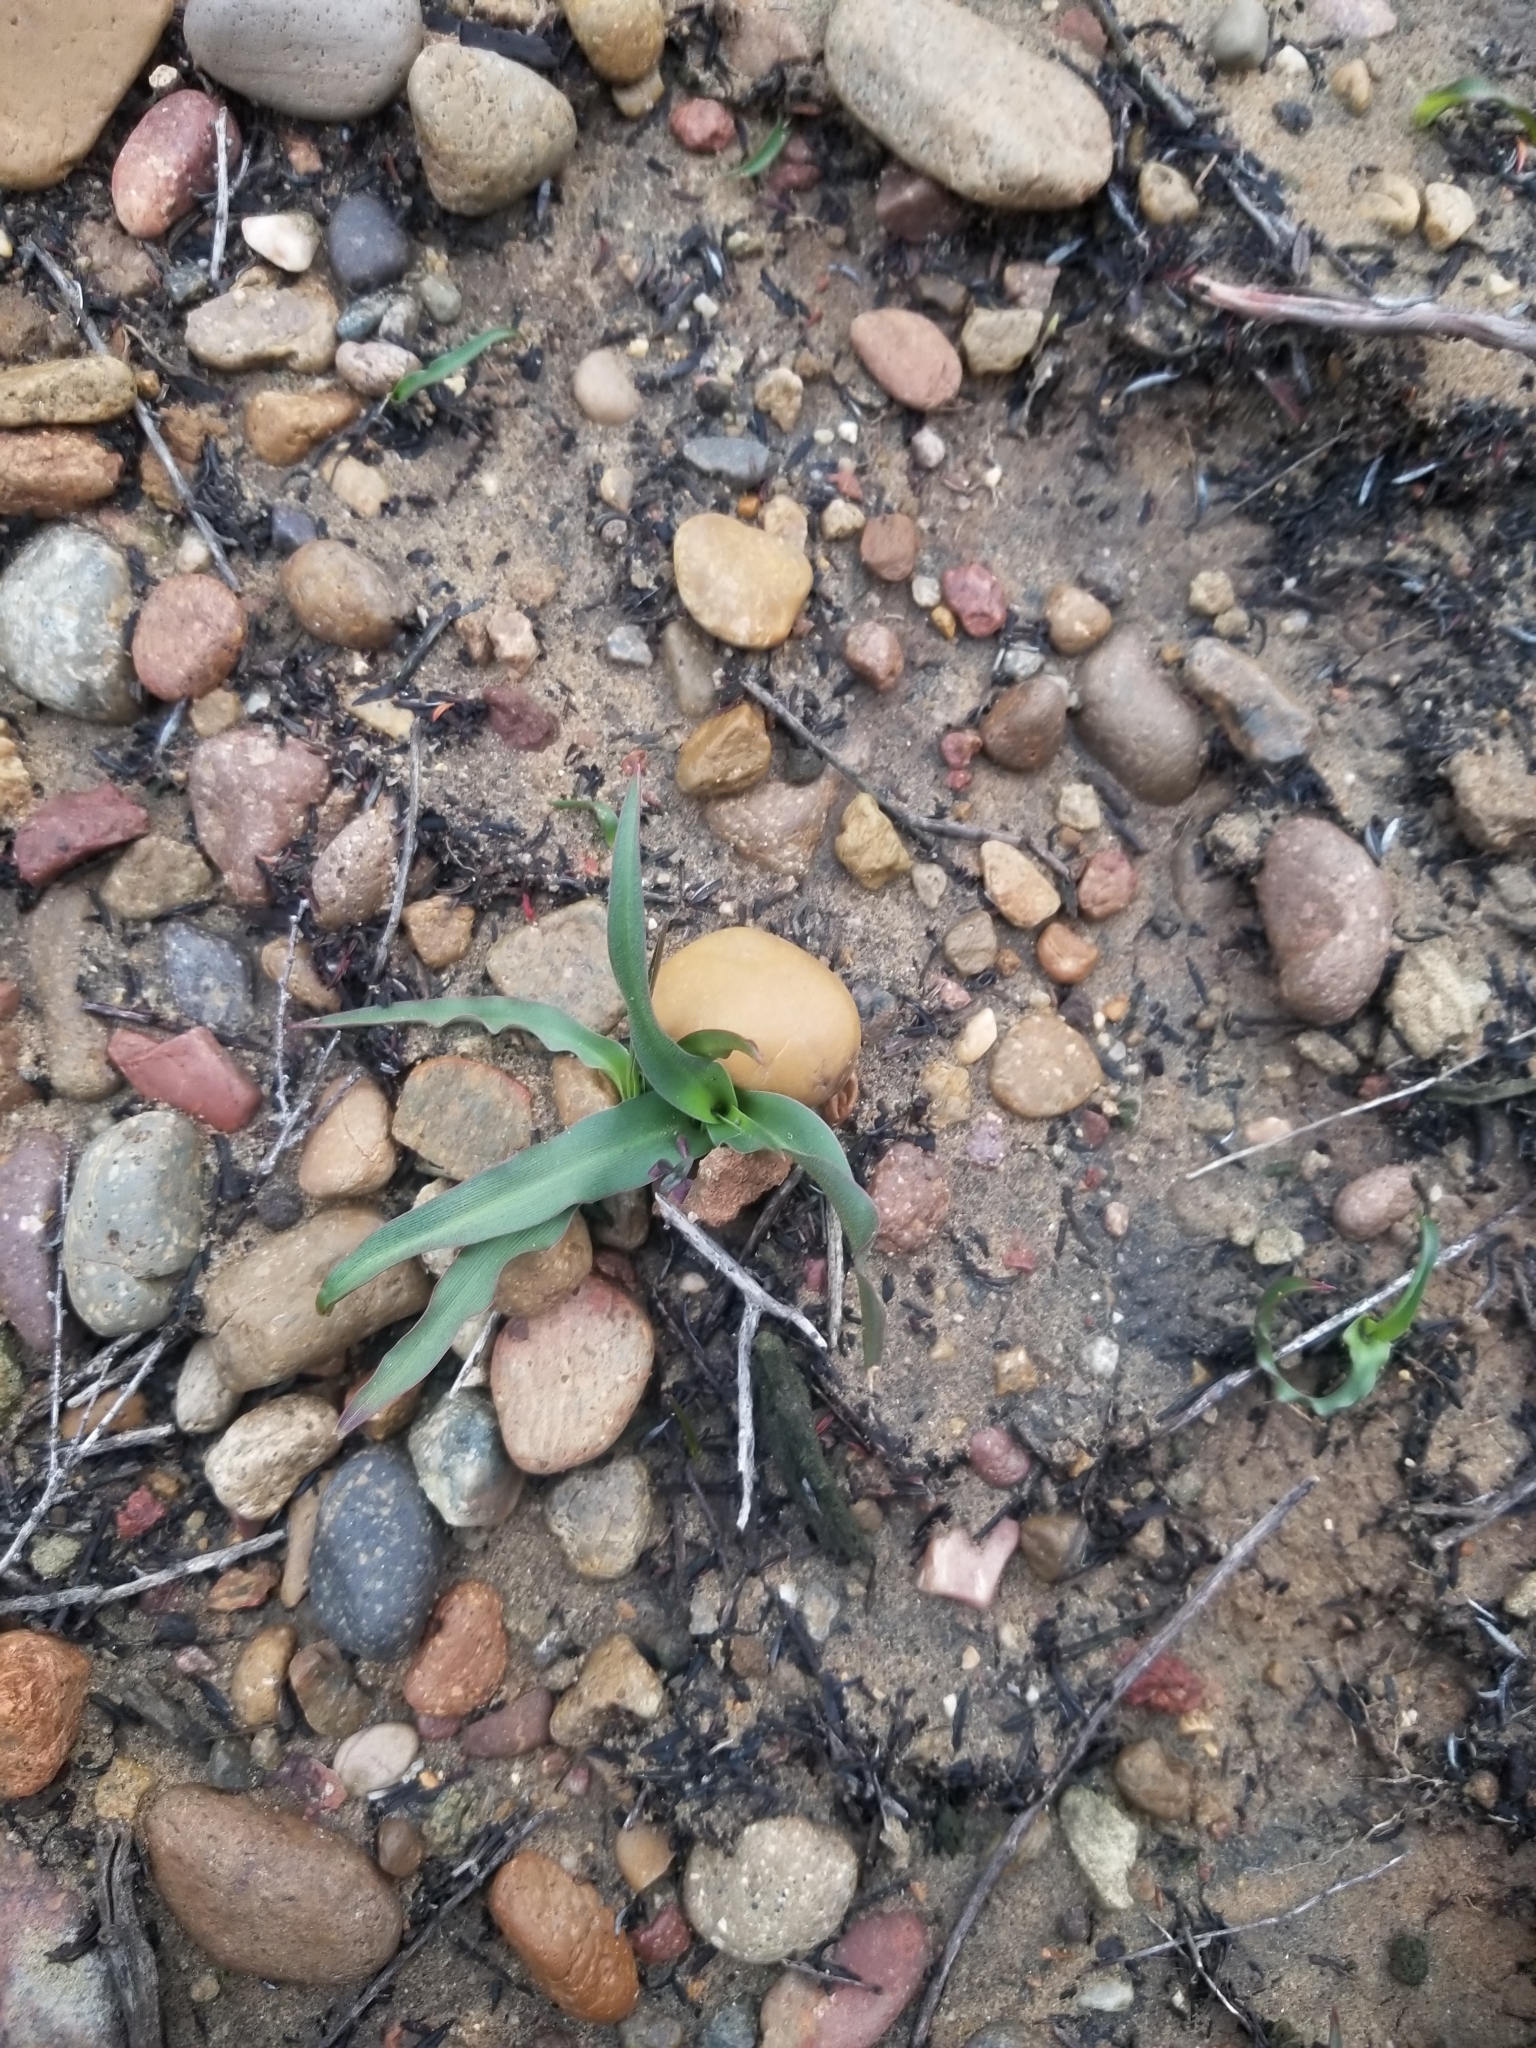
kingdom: Plantae
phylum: Tracheophyta
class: Liliopsida
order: Asparagales
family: Asparagaceae
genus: Hooveria
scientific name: Hooveria parviflora
